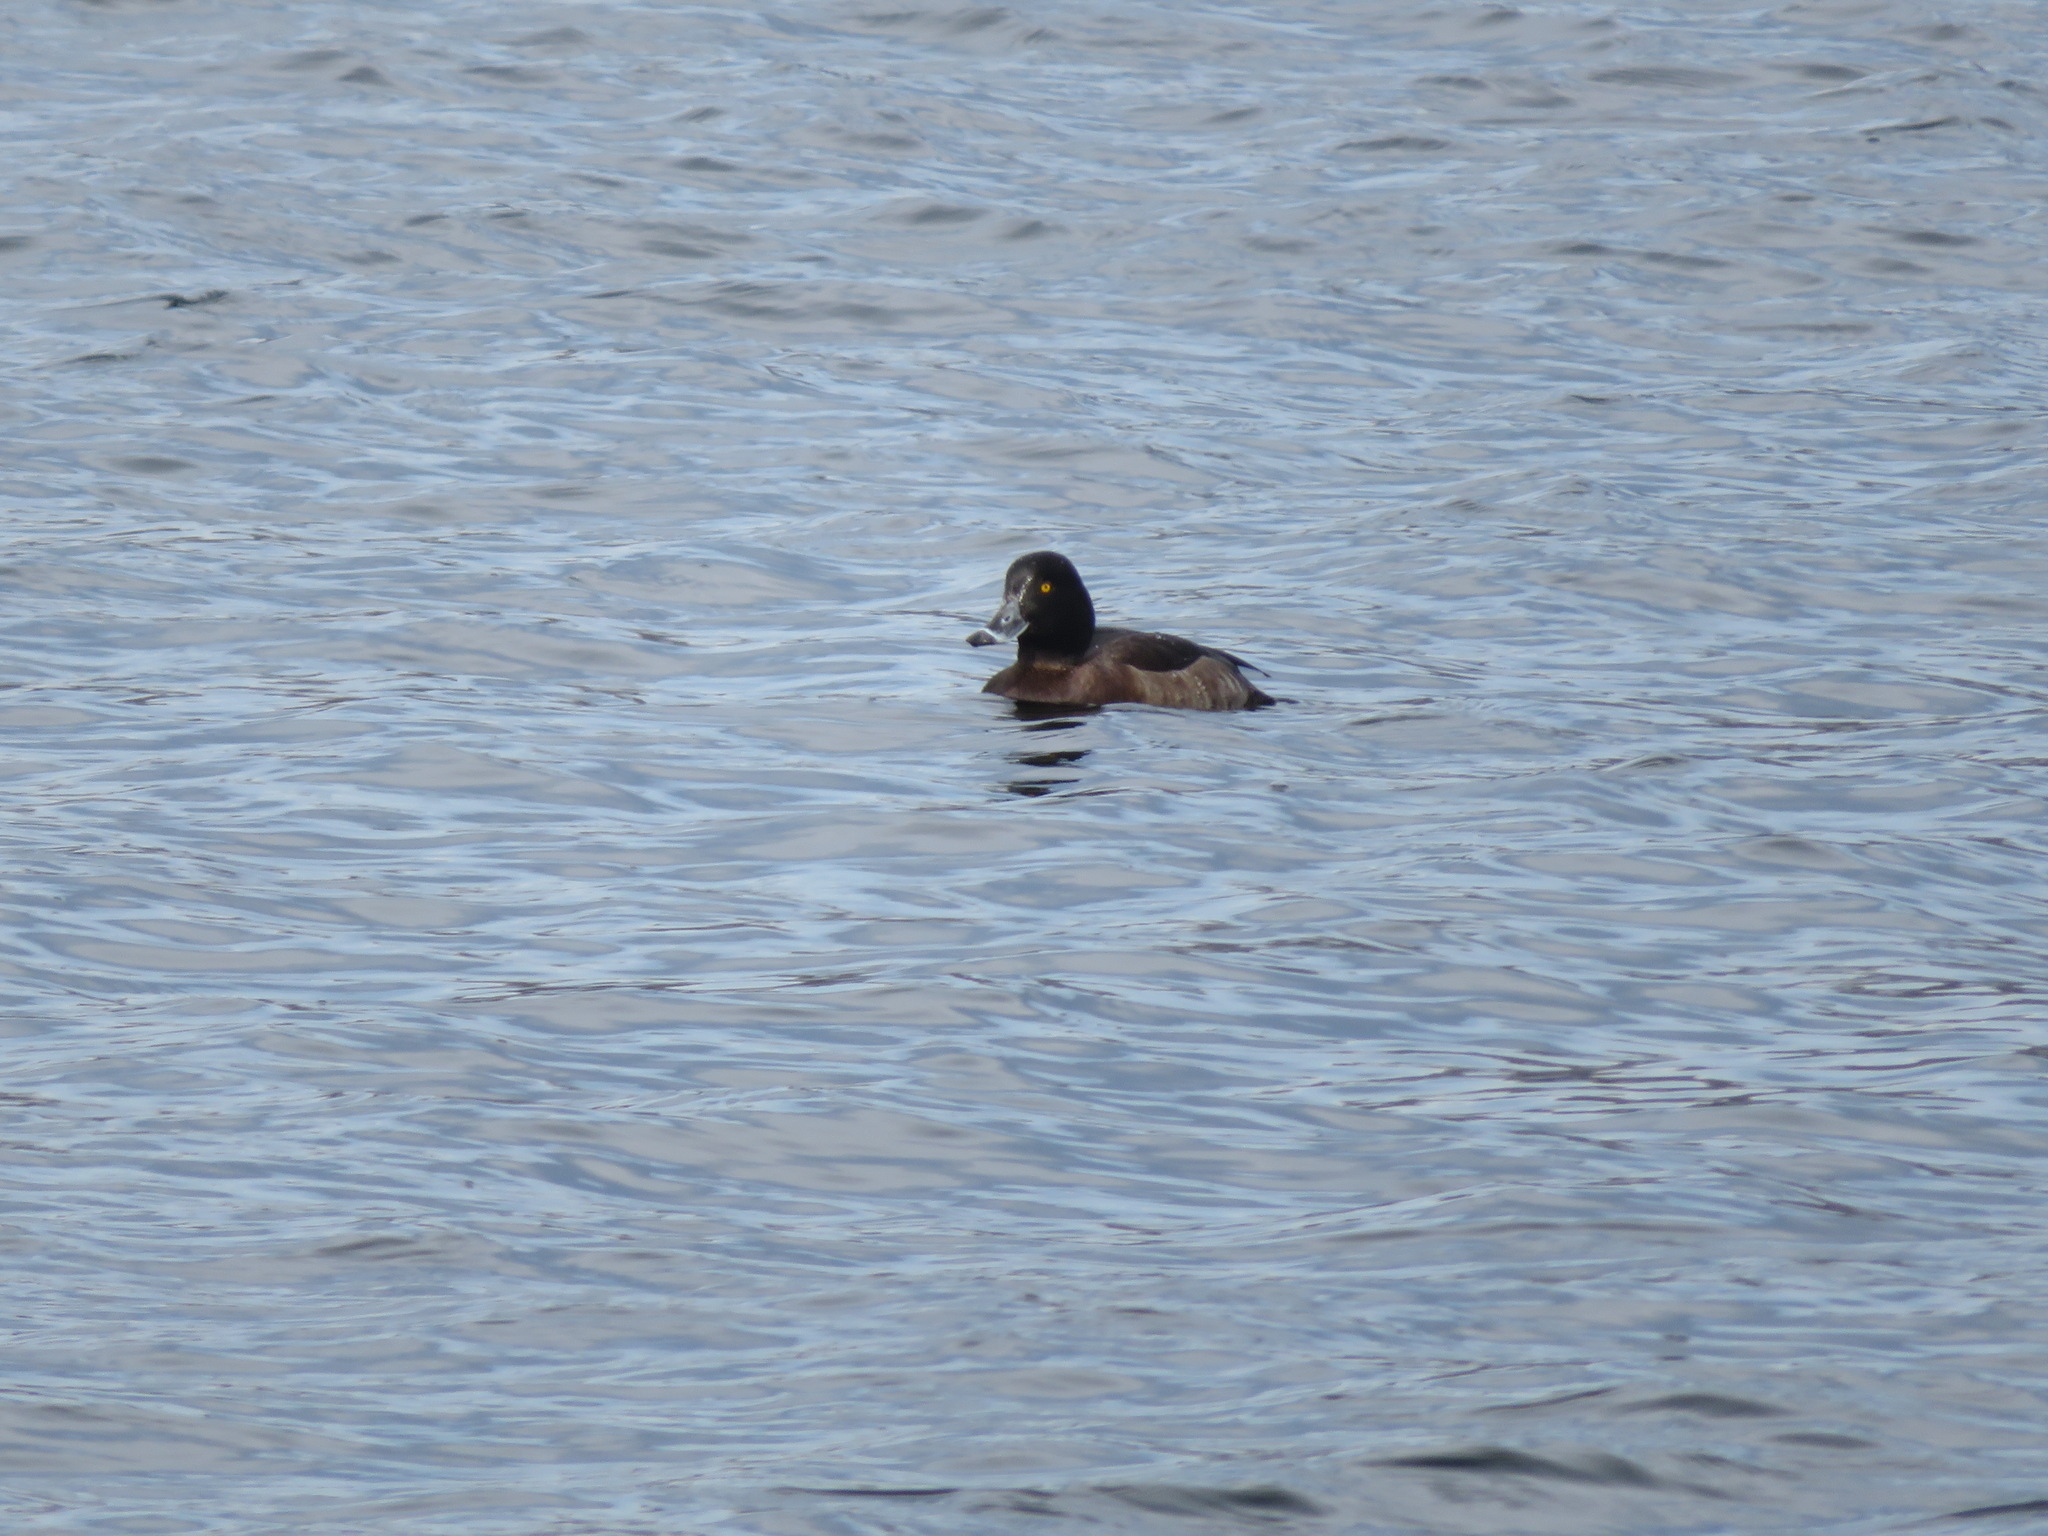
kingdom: Animalia
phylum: Chordata
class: Aves
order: Anseriformes
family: Anatidae
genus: Aythya
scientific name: Aythya fuligula
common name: Tufted duck
